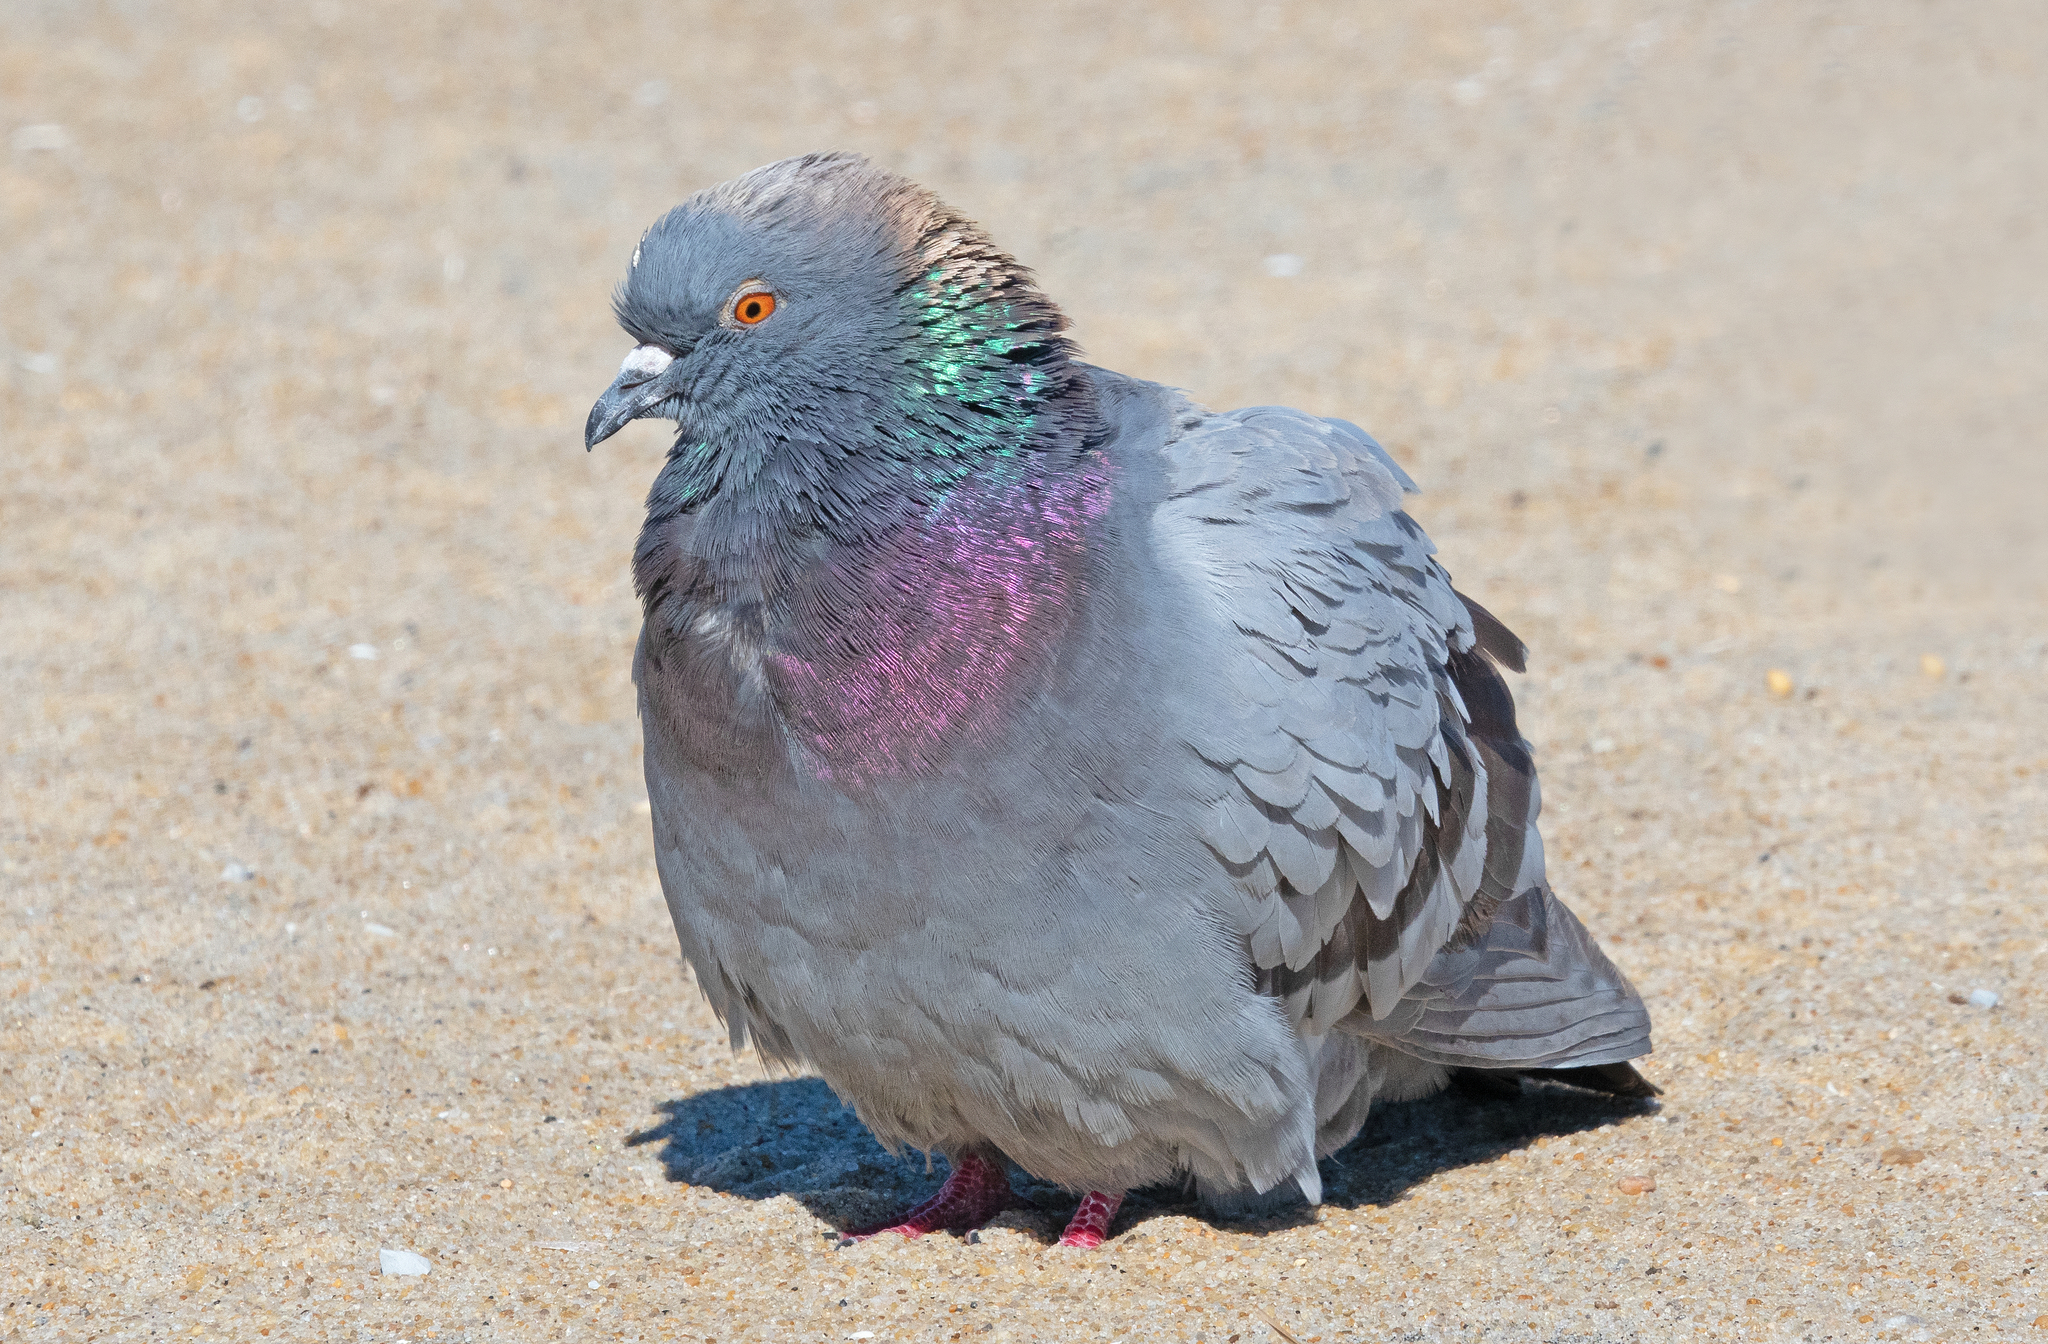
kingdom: Animalia
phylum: Chordata
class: Aves
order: Columbiformes
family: Columbidae
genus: Columba
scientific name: Columba livia
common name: Rock pigeon
